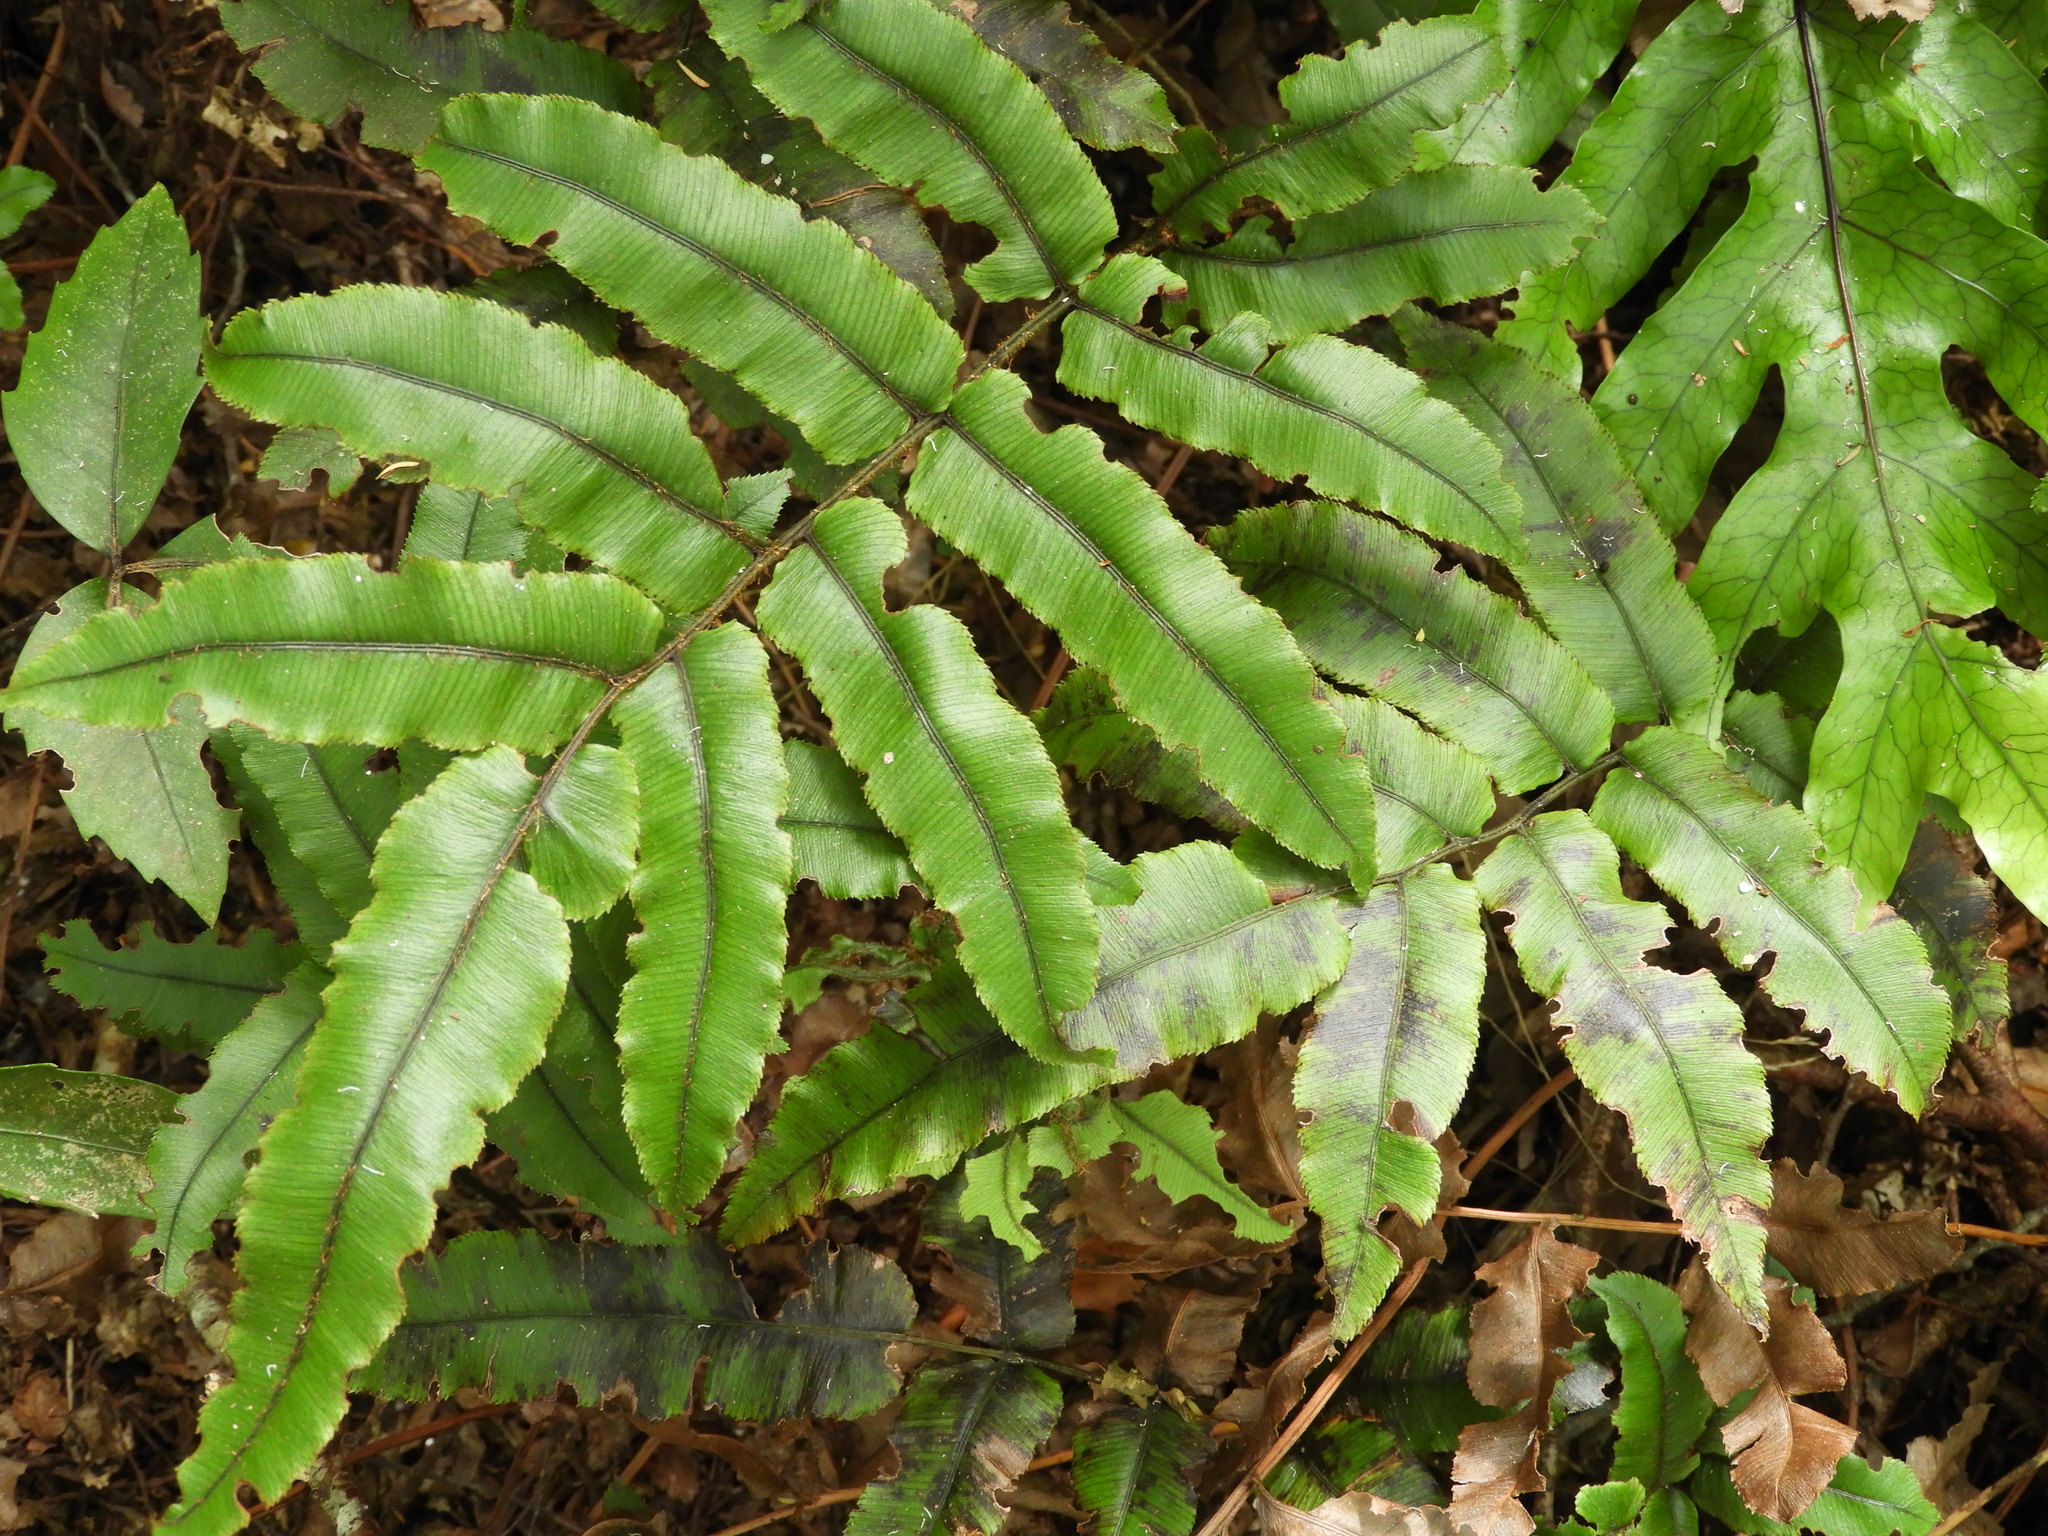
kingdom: Plantae
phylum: Tracheophyta
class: Polypodiopsida
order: Polypodiales
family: Blechnaceae
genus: Parablechnum
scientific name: Parablechnum procerum
